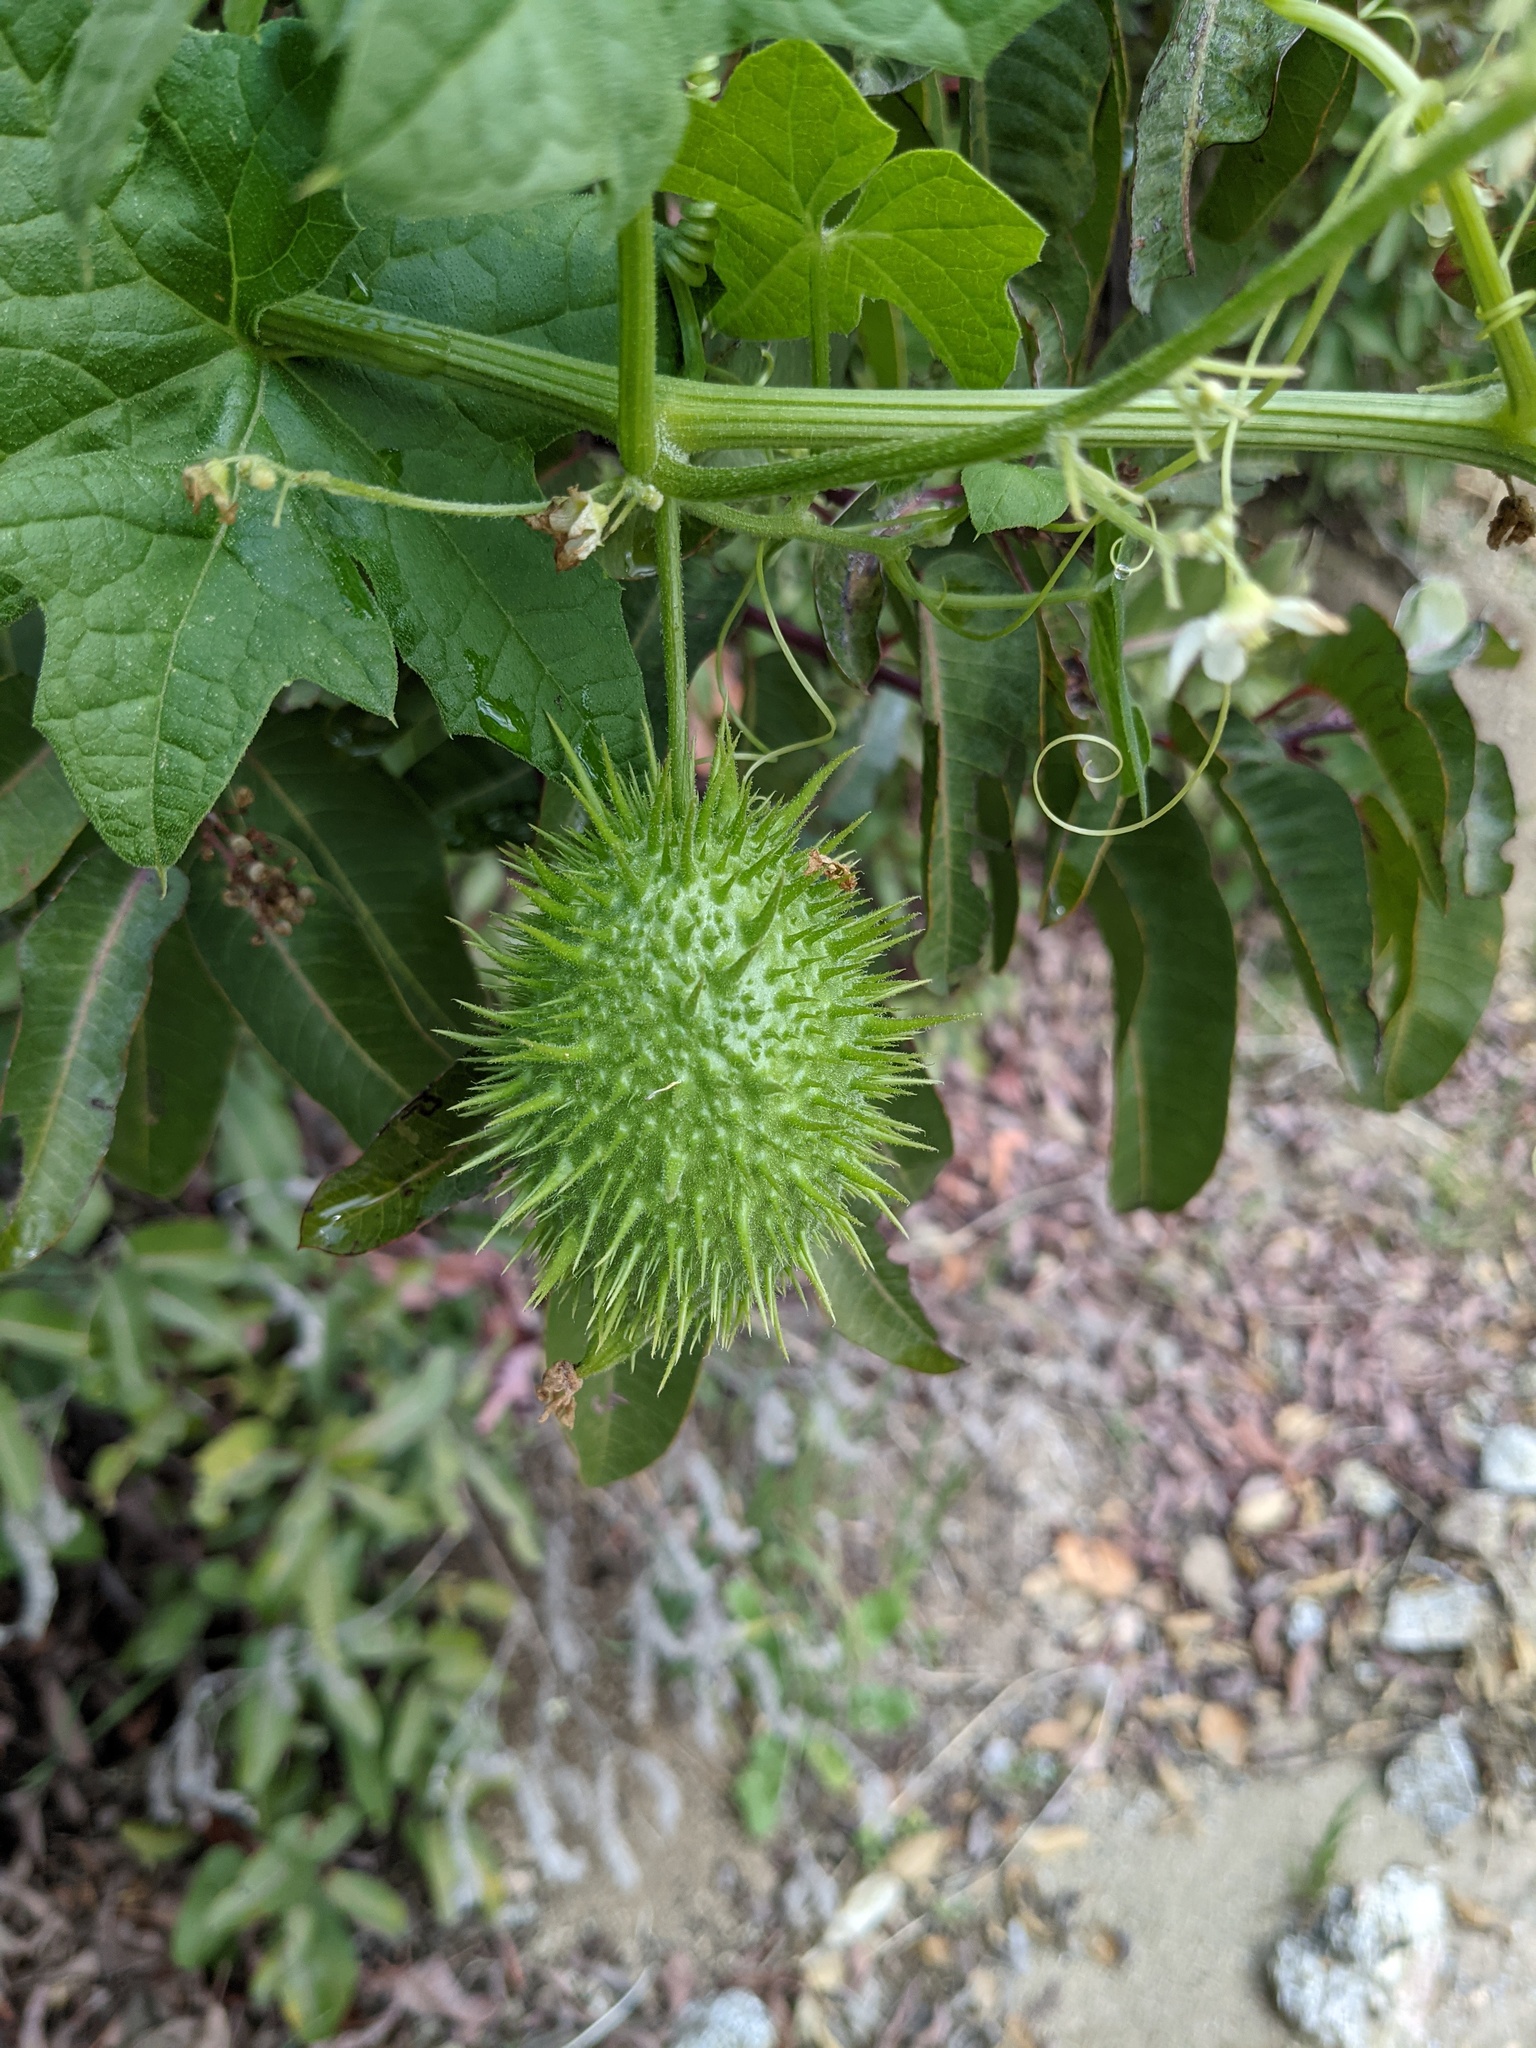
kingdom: Plantae
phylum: Tracheophyta
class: Magnoliopsida
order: Cucurbitales
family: Cucurbitaceae
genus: Marah
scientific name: Marah macrocarpa
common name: Cucamonga manroot
